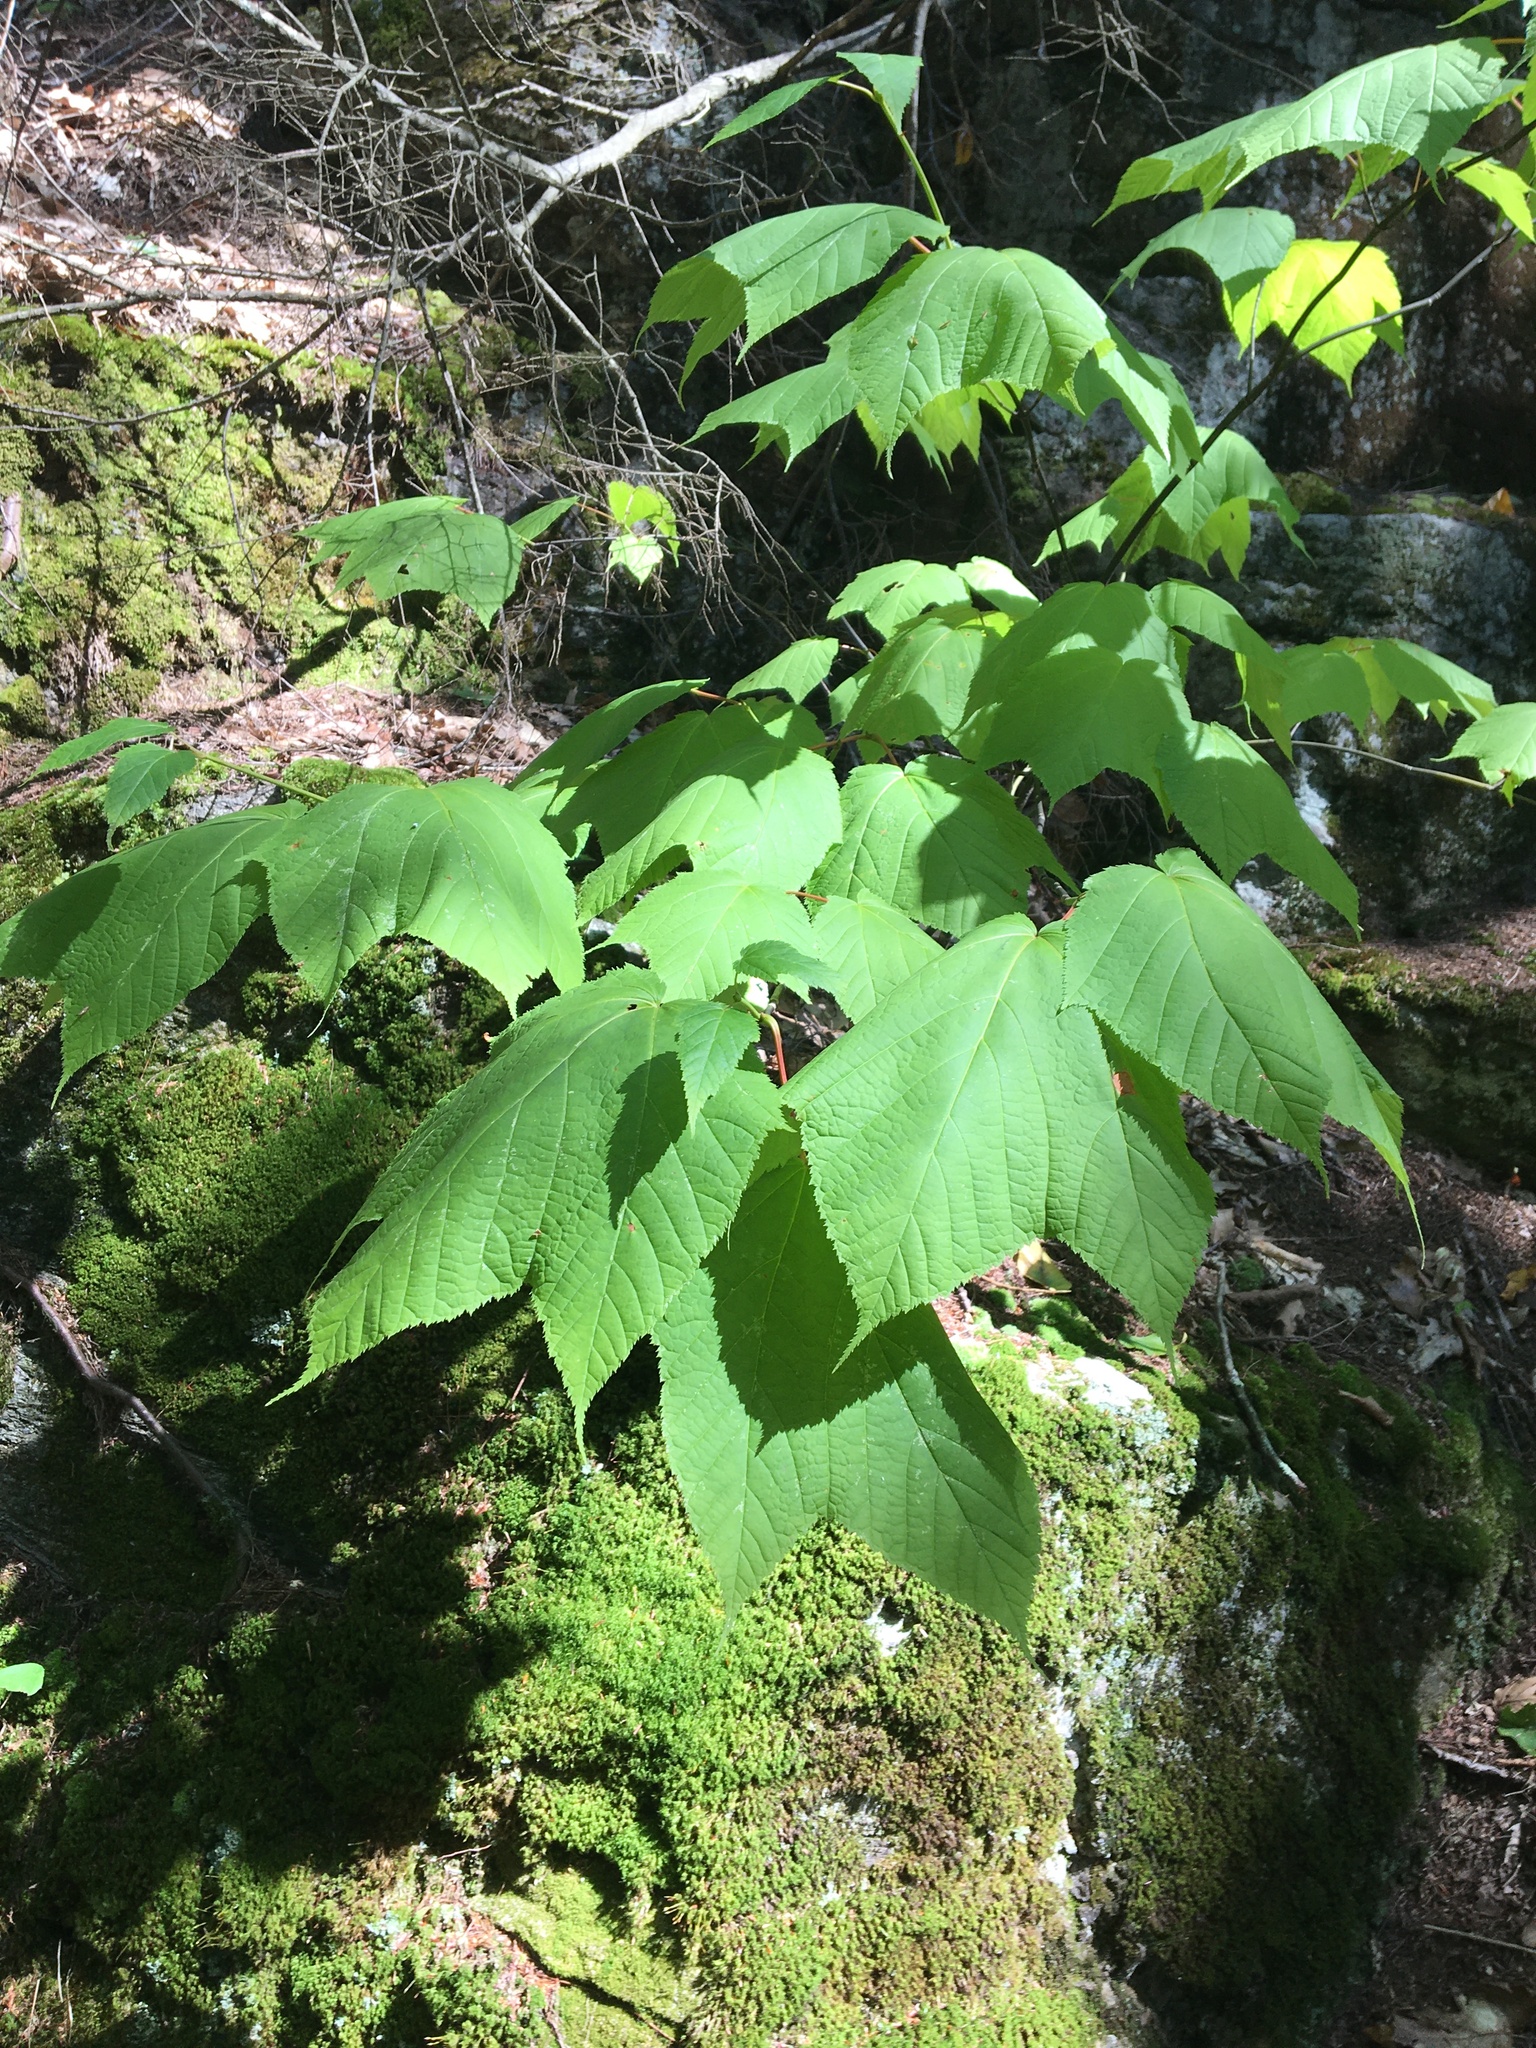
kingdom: Plantae
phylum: Tracheophyta
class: Magnoliopsida
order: Sapindales
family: Sapindaceae
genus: Acer
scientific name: Acer pensylvanicum
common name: Moosewood
